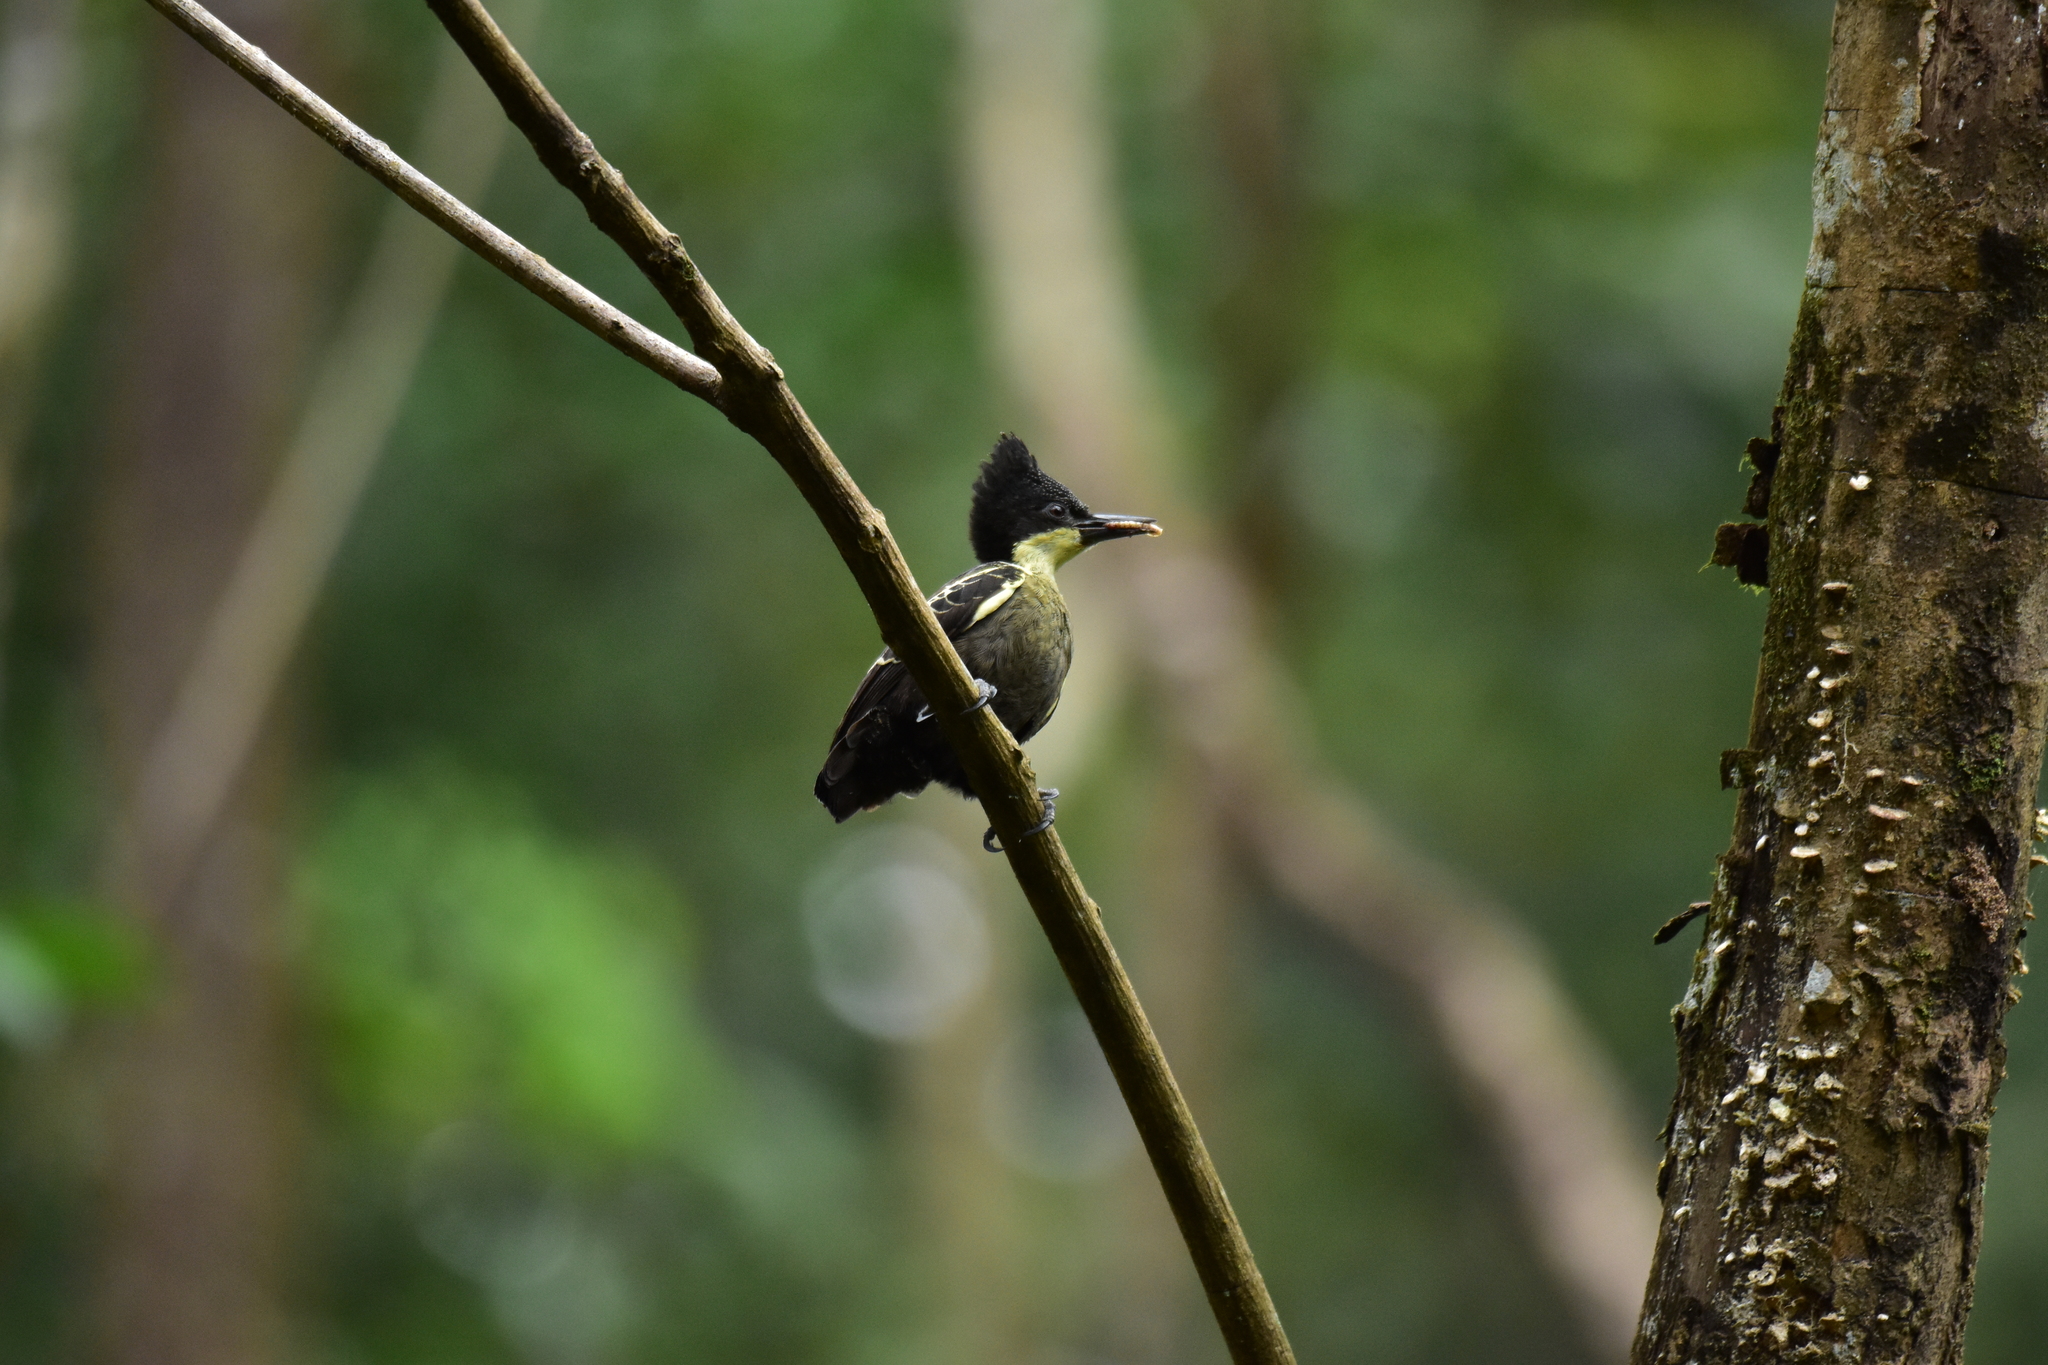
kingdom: Animalia
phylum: Chordata
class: Aves
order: Piciformes
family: Picidae
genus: Hemicircus
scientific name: Hemicircus canente
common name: Heart-spotted woodpecker
